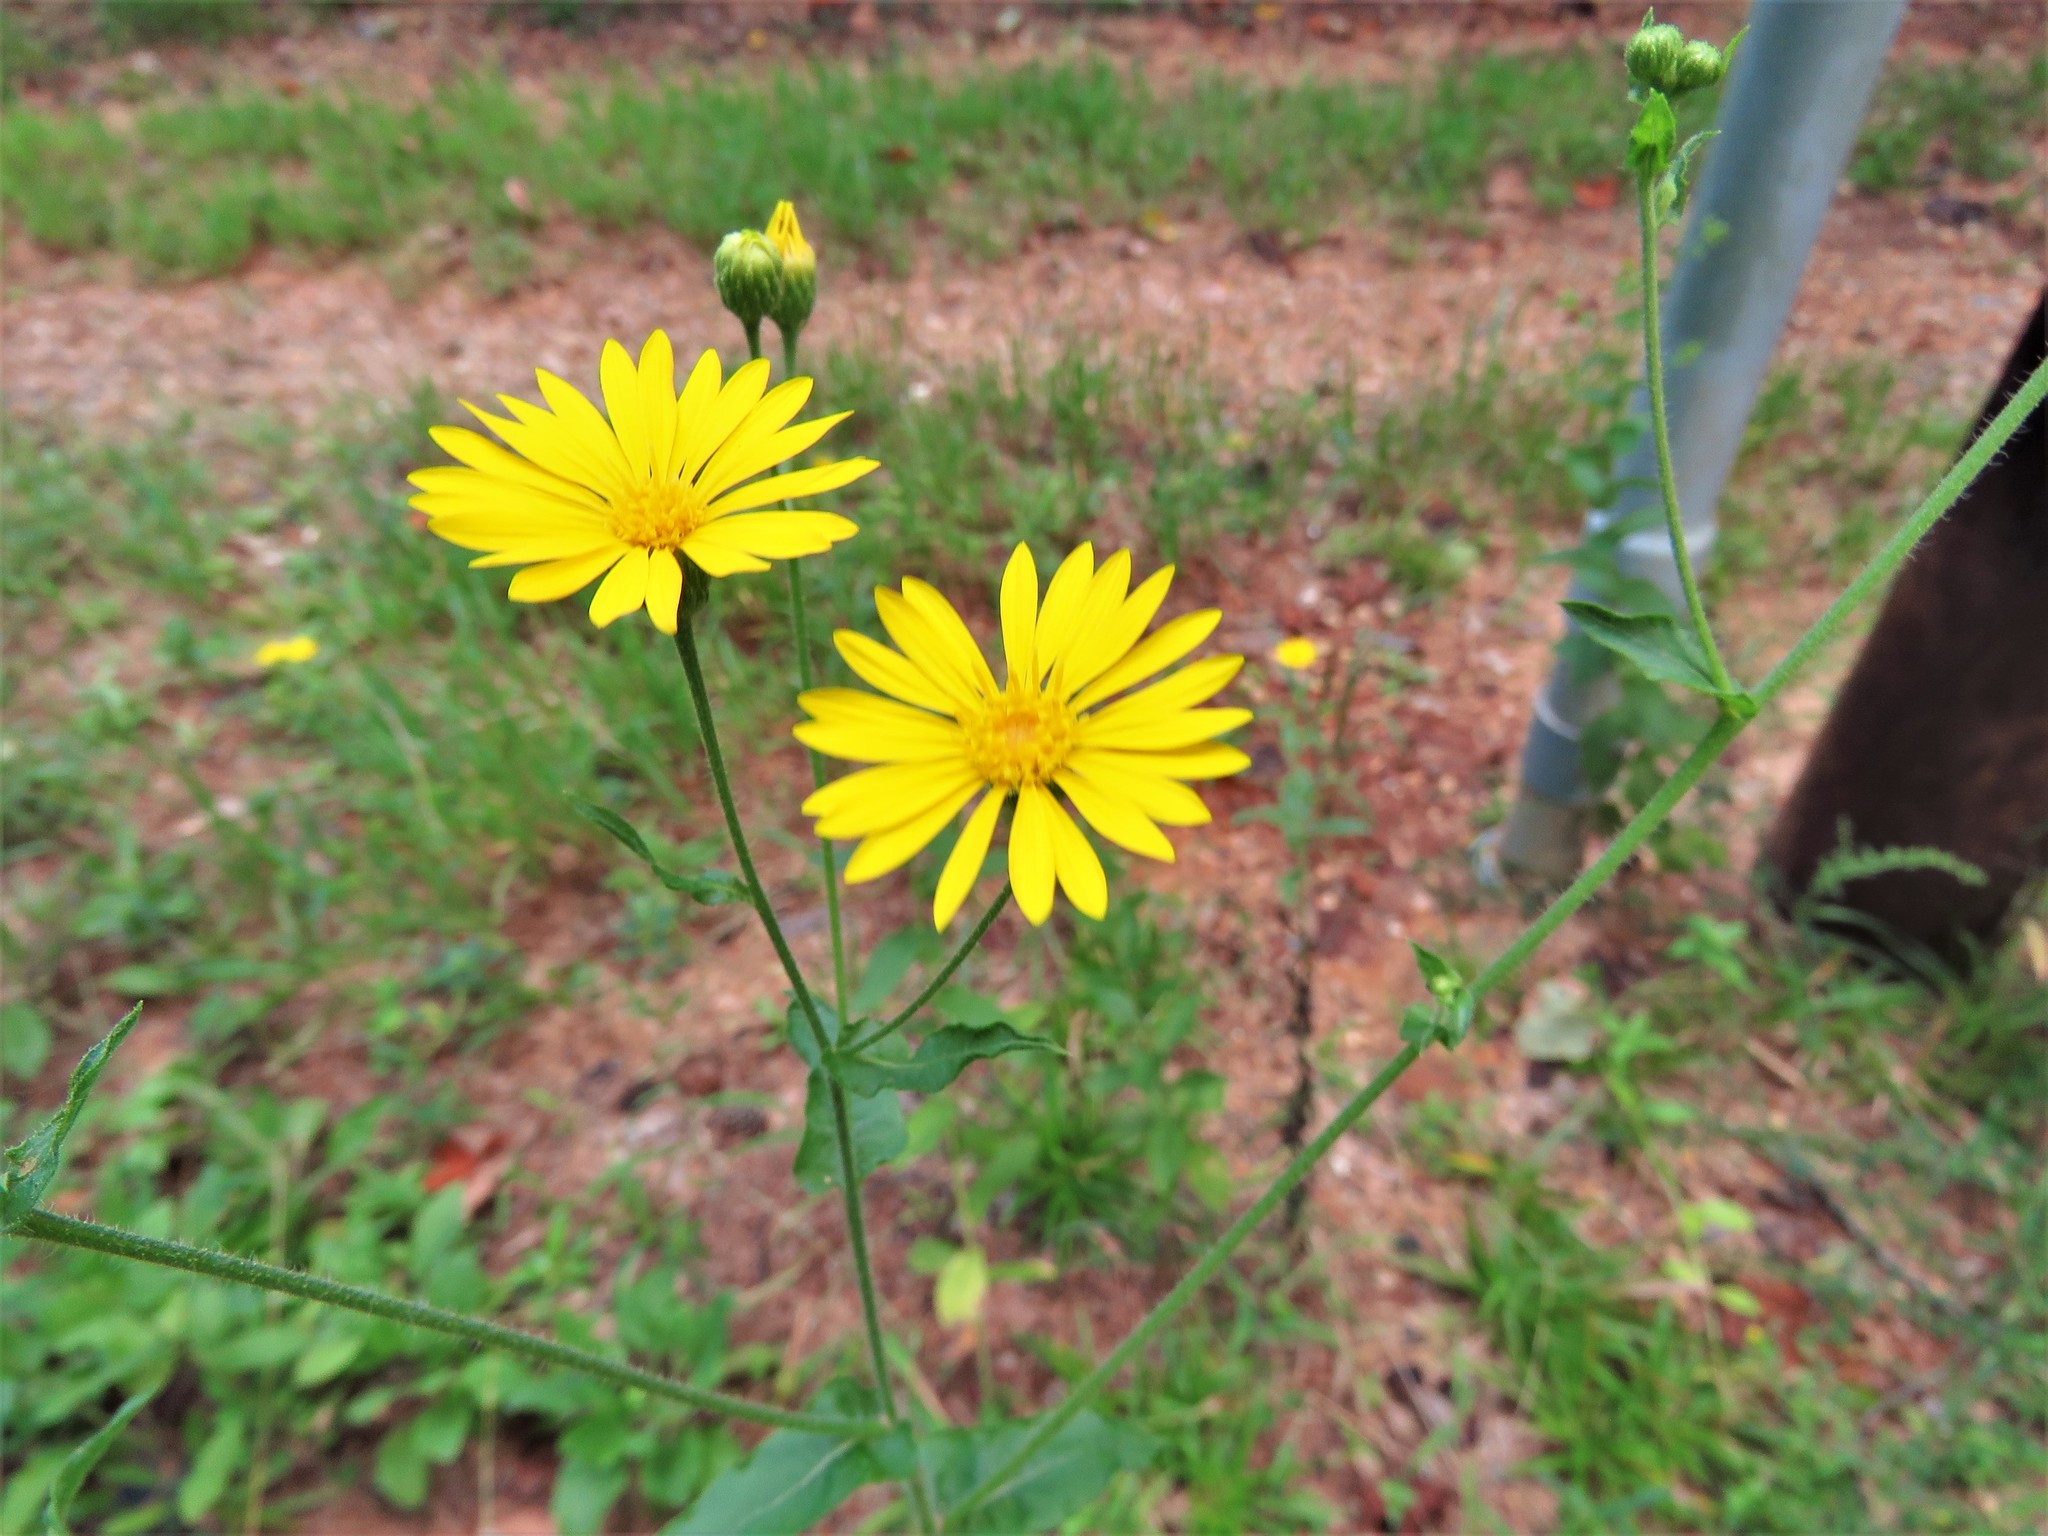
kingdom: Plantae
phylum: Tracheophyta
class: Magnoliopsida
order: Asterales
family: Asteraceae
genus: Heterotheca
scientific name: Heterotheca subaxillaris
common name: Camphorweed
